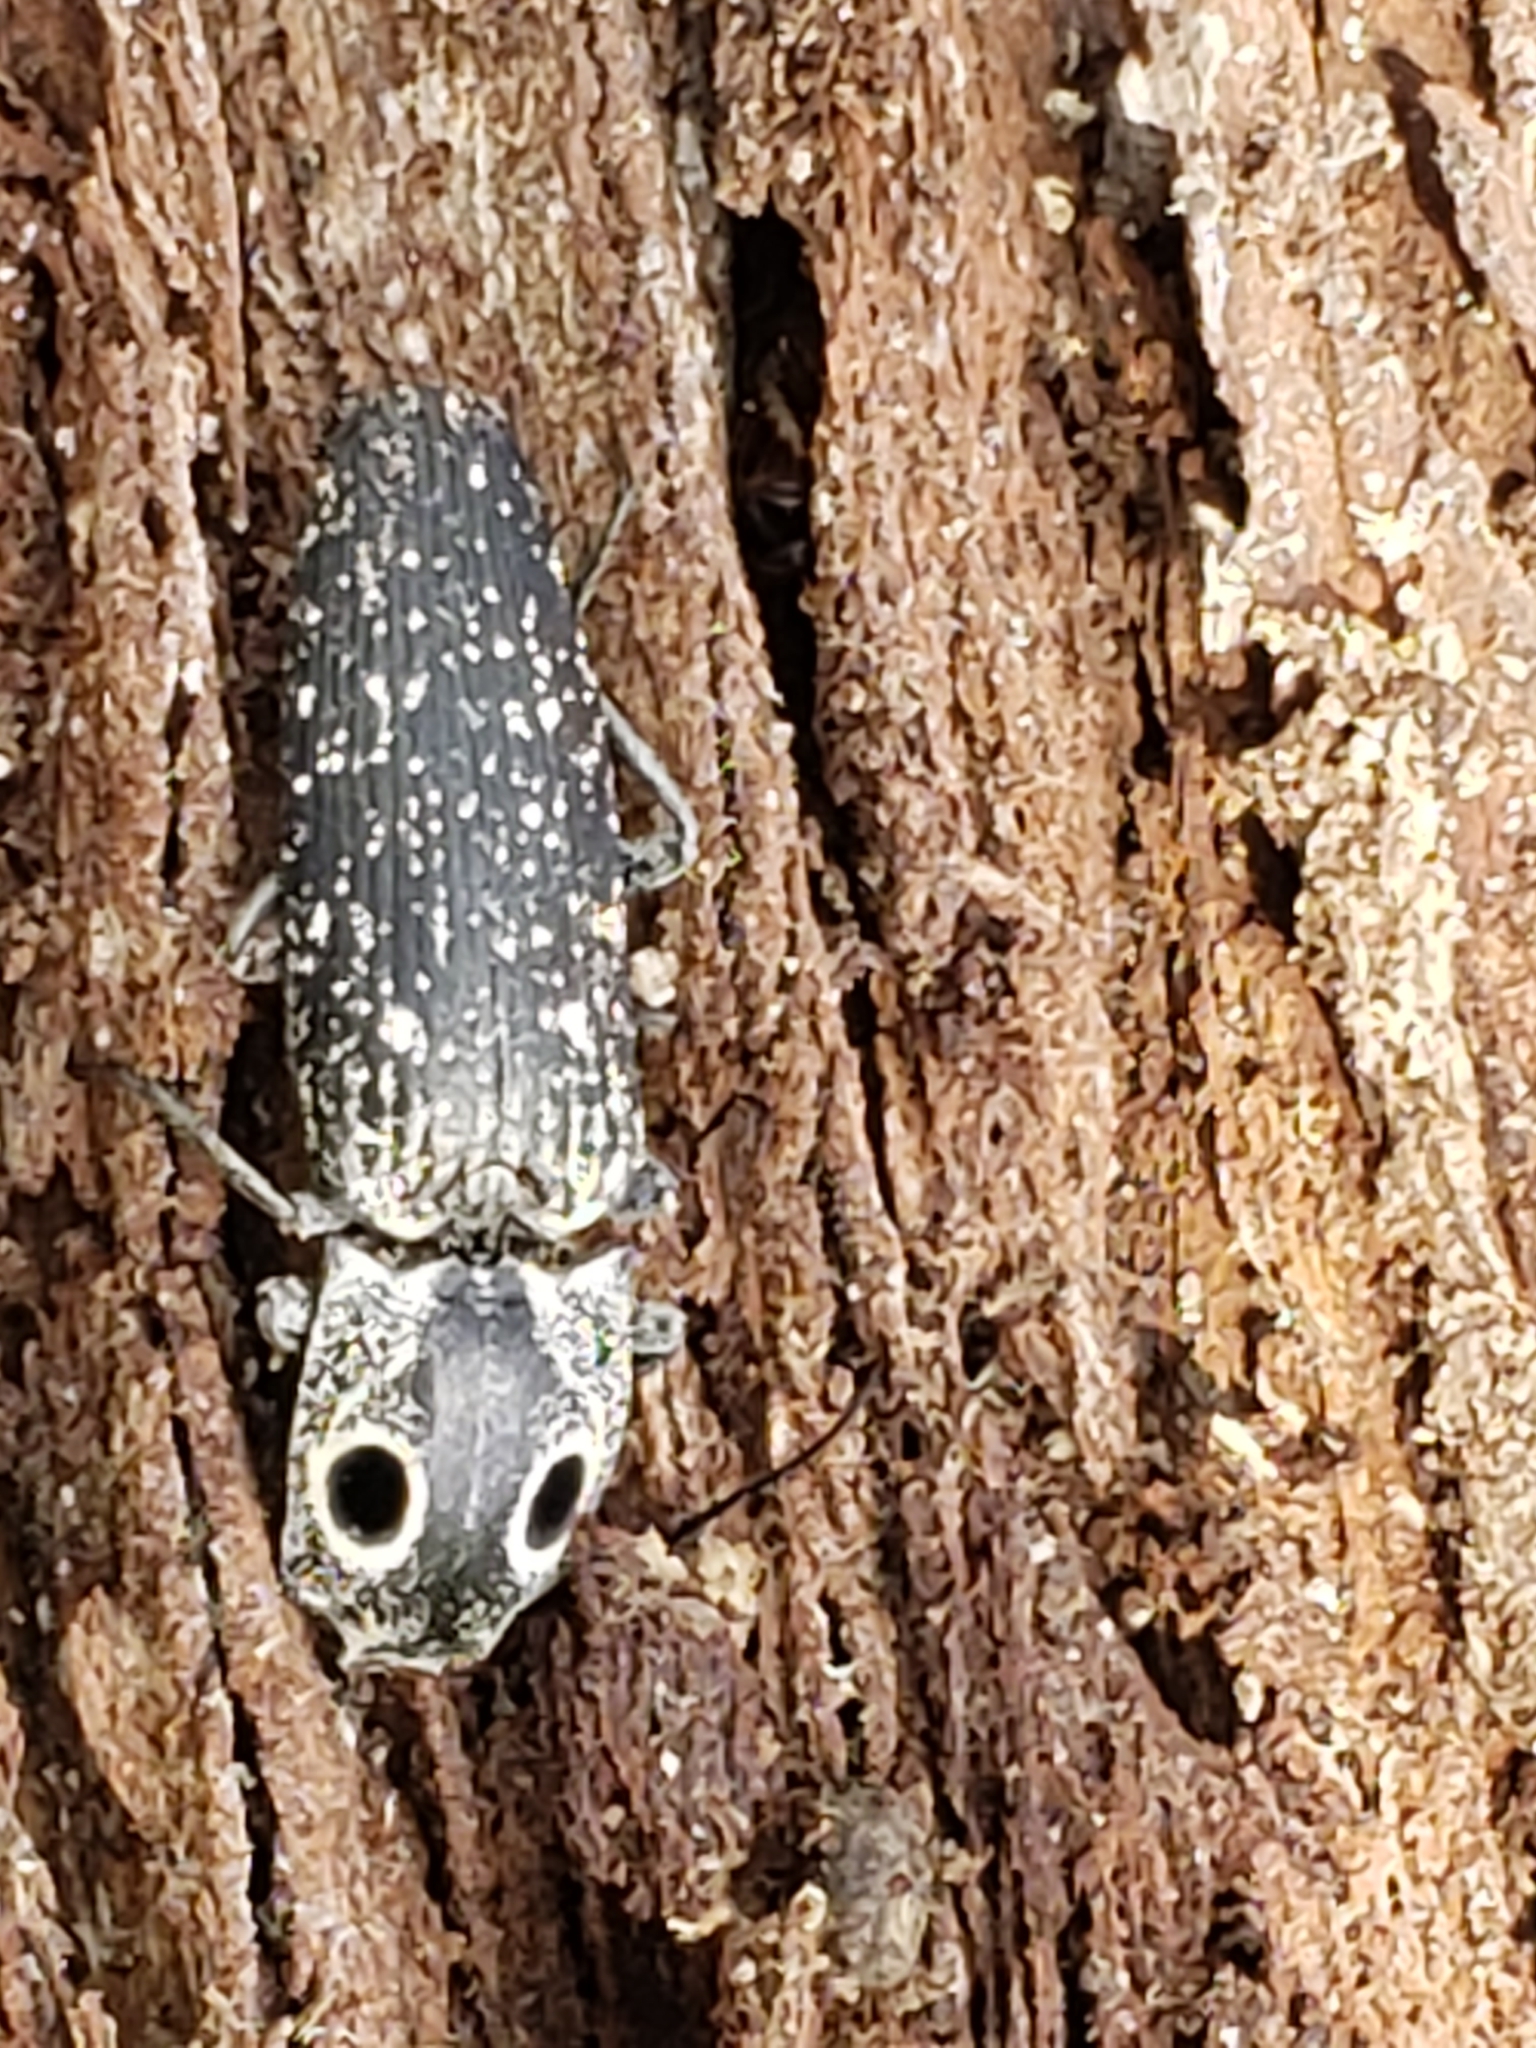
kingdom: Animalia
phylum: Arthropoda
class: Insecta
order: Coleoptera
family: Elateridae
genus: Alaus
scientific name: Alaus oculatus
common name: Eastern eyed click beetle
